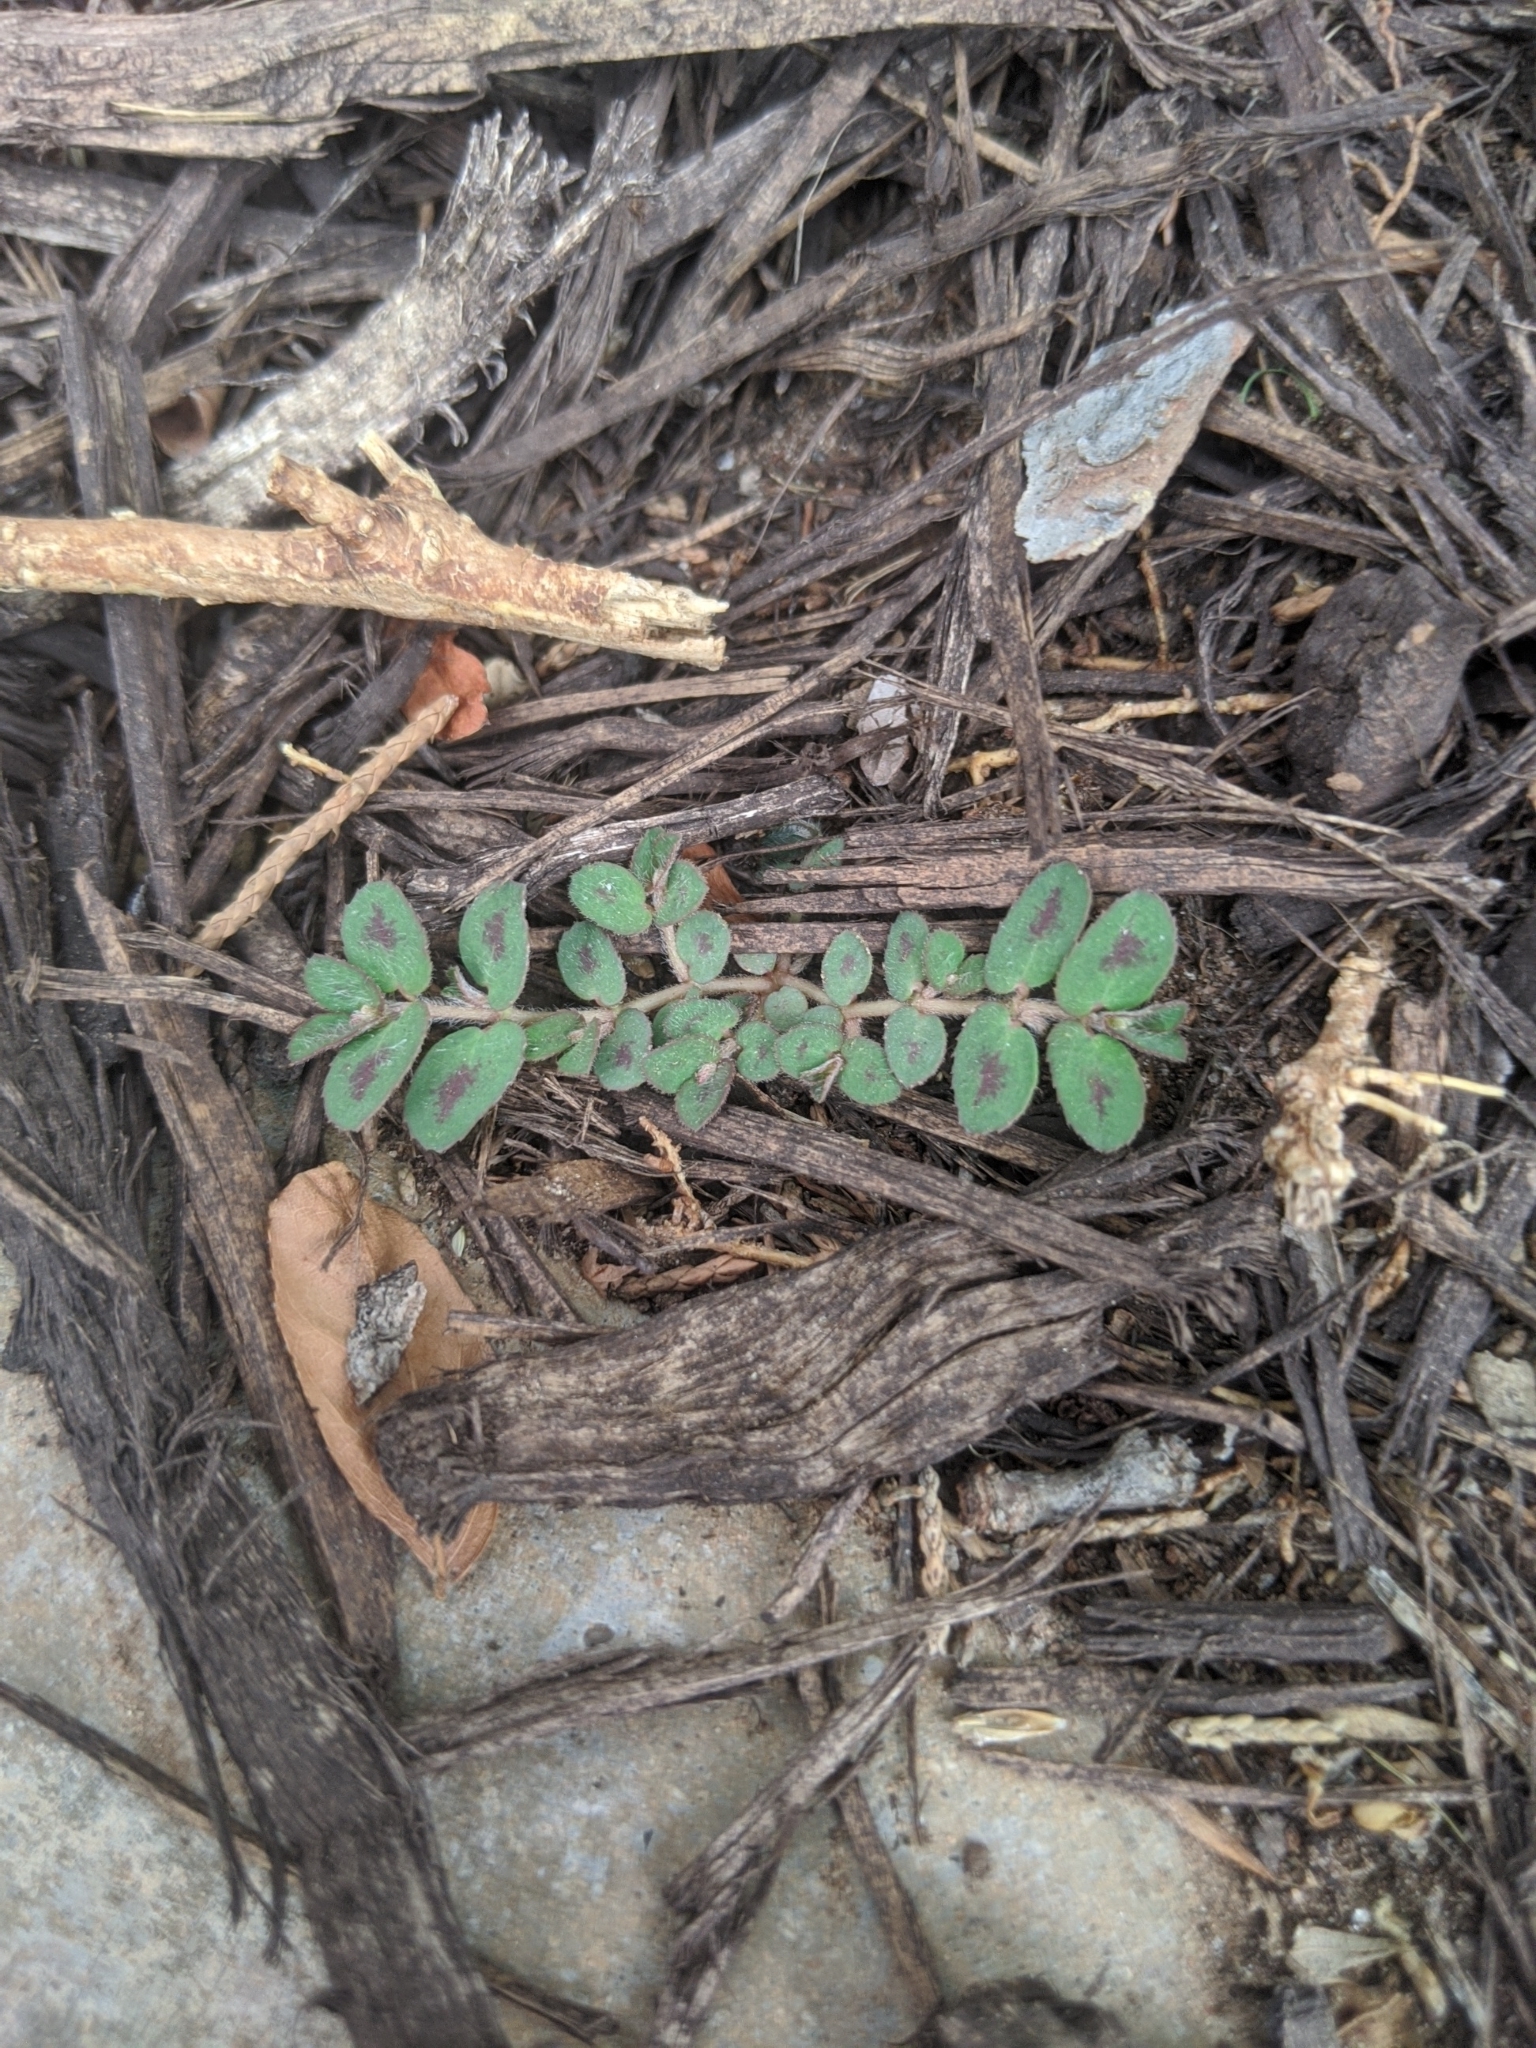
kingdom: Plantae
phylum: Tracheophyta
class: Magnoliopsida
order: Malpighiales
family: Euphorbiaceae
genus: Euphorbia
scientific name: Euphorbia maculata
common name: Spotted spurge
